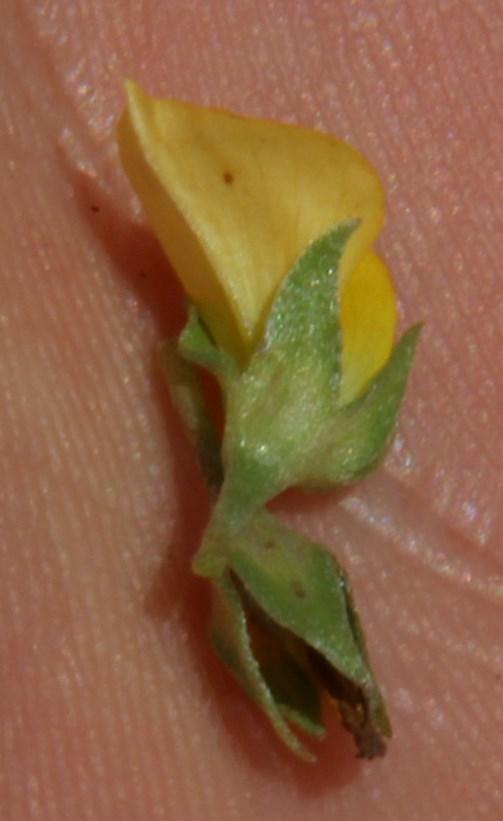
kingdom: Plantae
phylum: Tracheophyta
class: Magnoliopsida
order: Fabales
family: Fabaceae
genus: Lotononis
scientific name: Lotononis pungens
